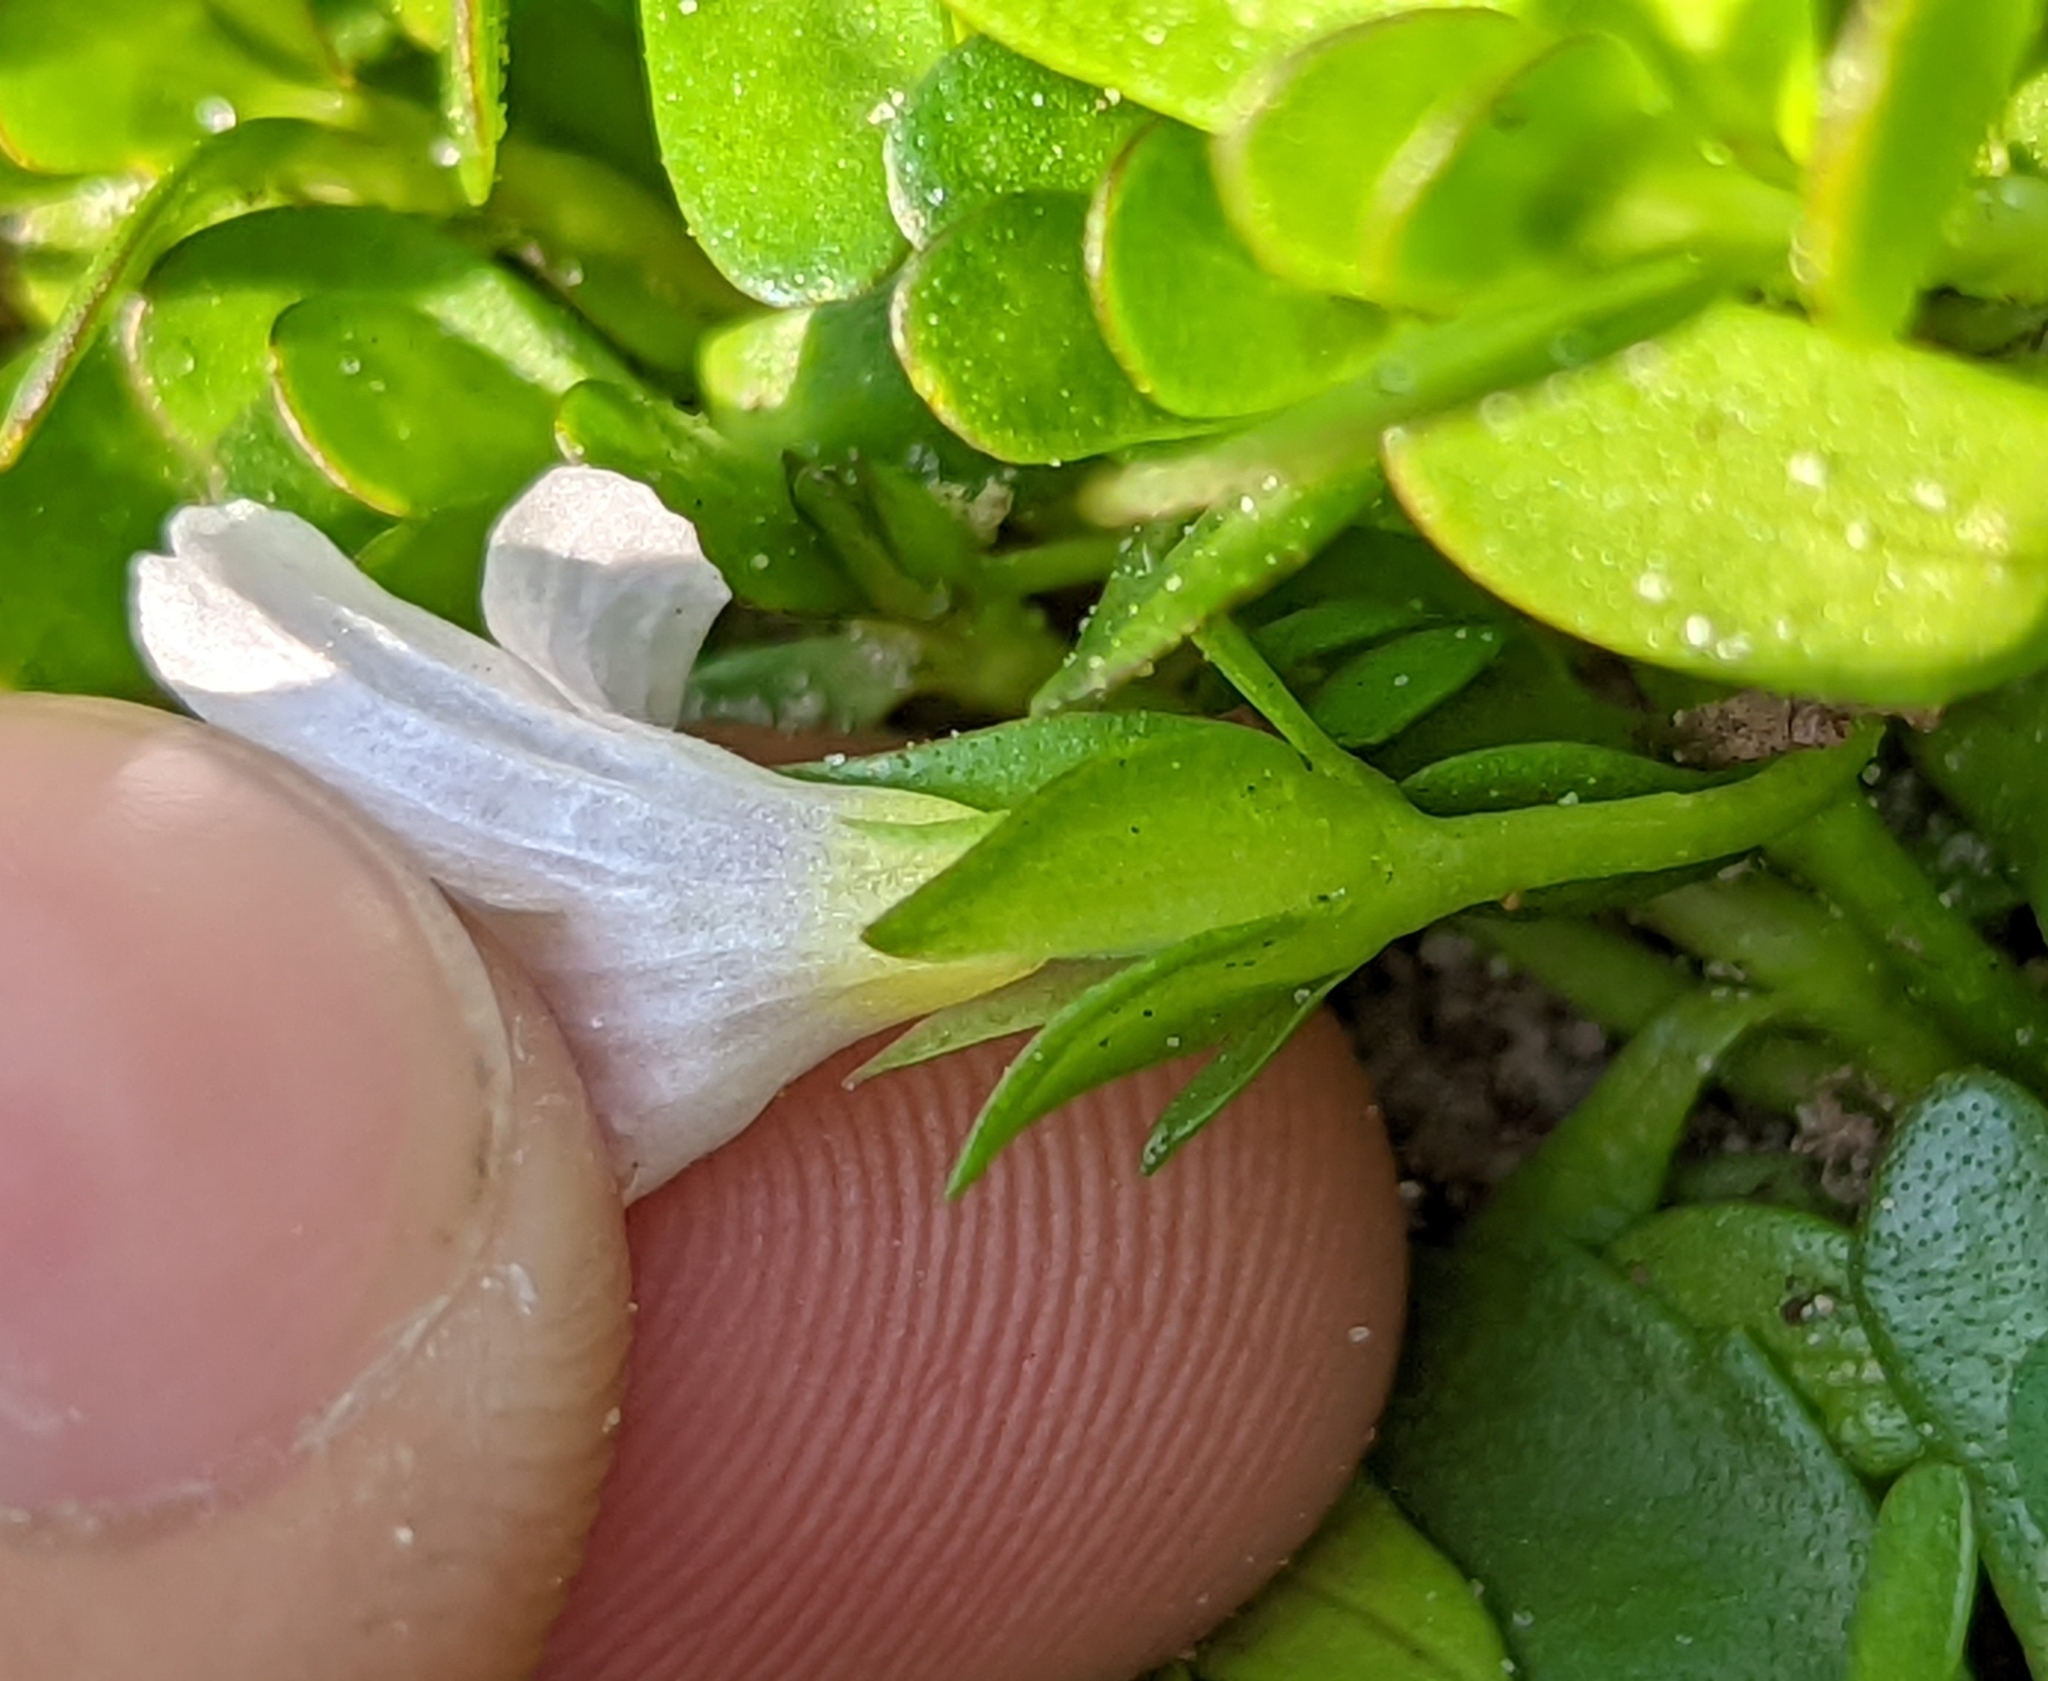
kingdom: Plantae
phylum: Tracheophyta
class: Magnoliopsida
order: Lamiales
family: Plantaginaceae
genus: Bacopa
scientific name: Bacopa monnieri
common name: Indian-pennywort
